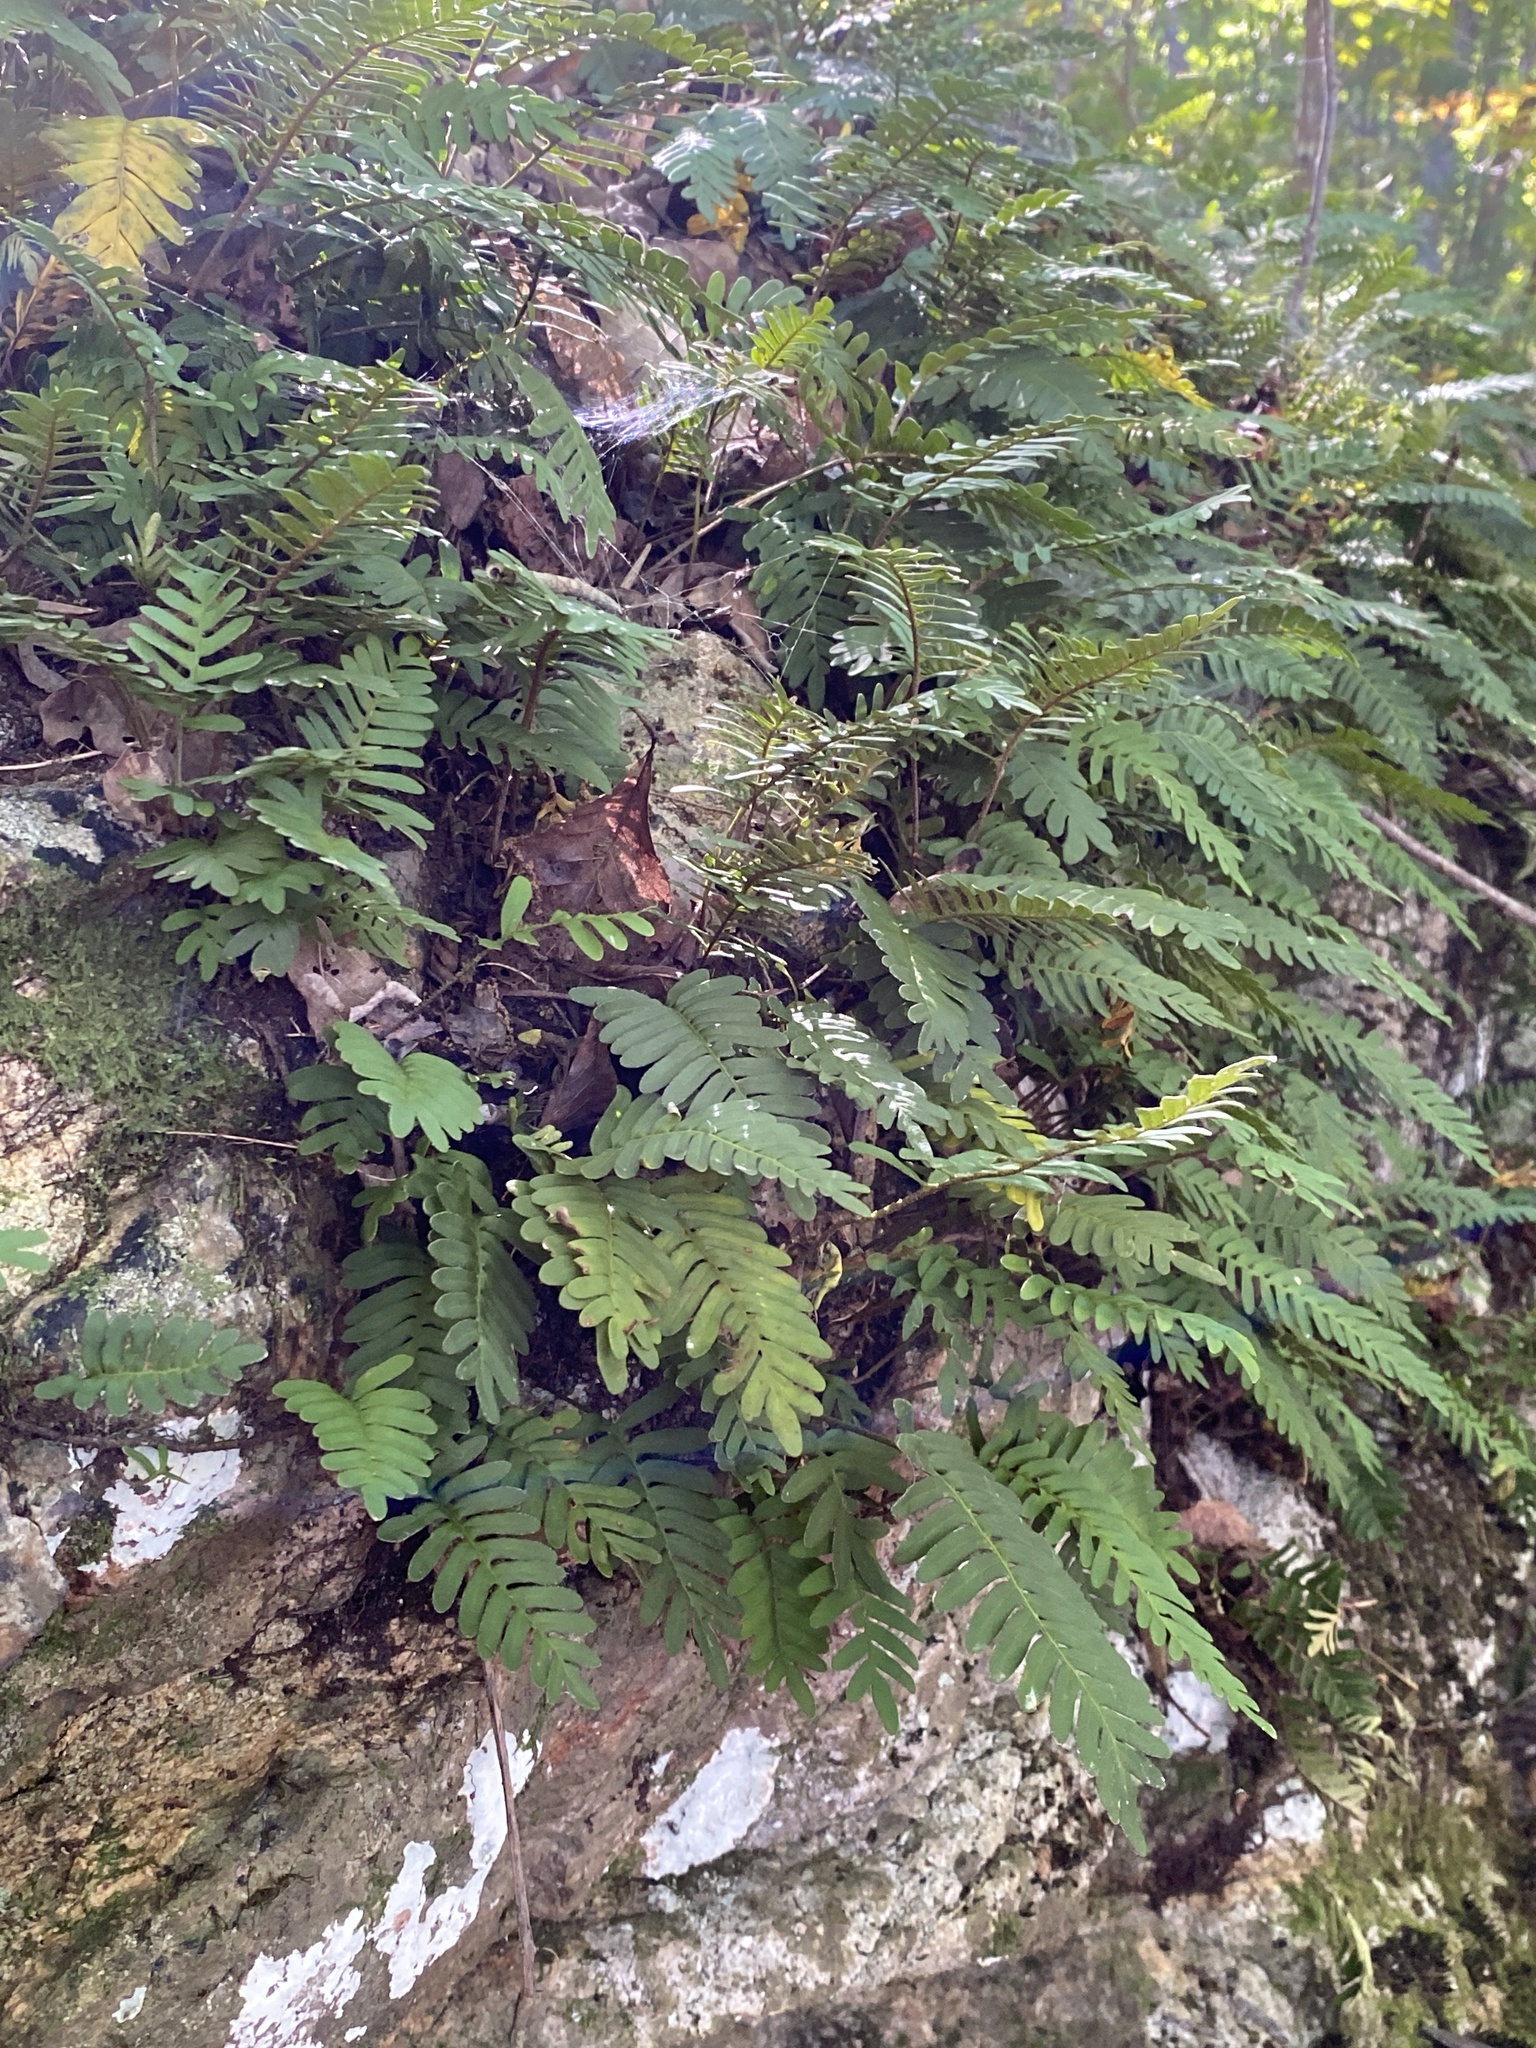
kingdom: Plantae
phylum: Tracheophyta
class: Polypodiopsida
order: Polypodiales
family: Polypodiaceae
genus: Pleopeltis
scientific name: Pleopeltis michauxiana
